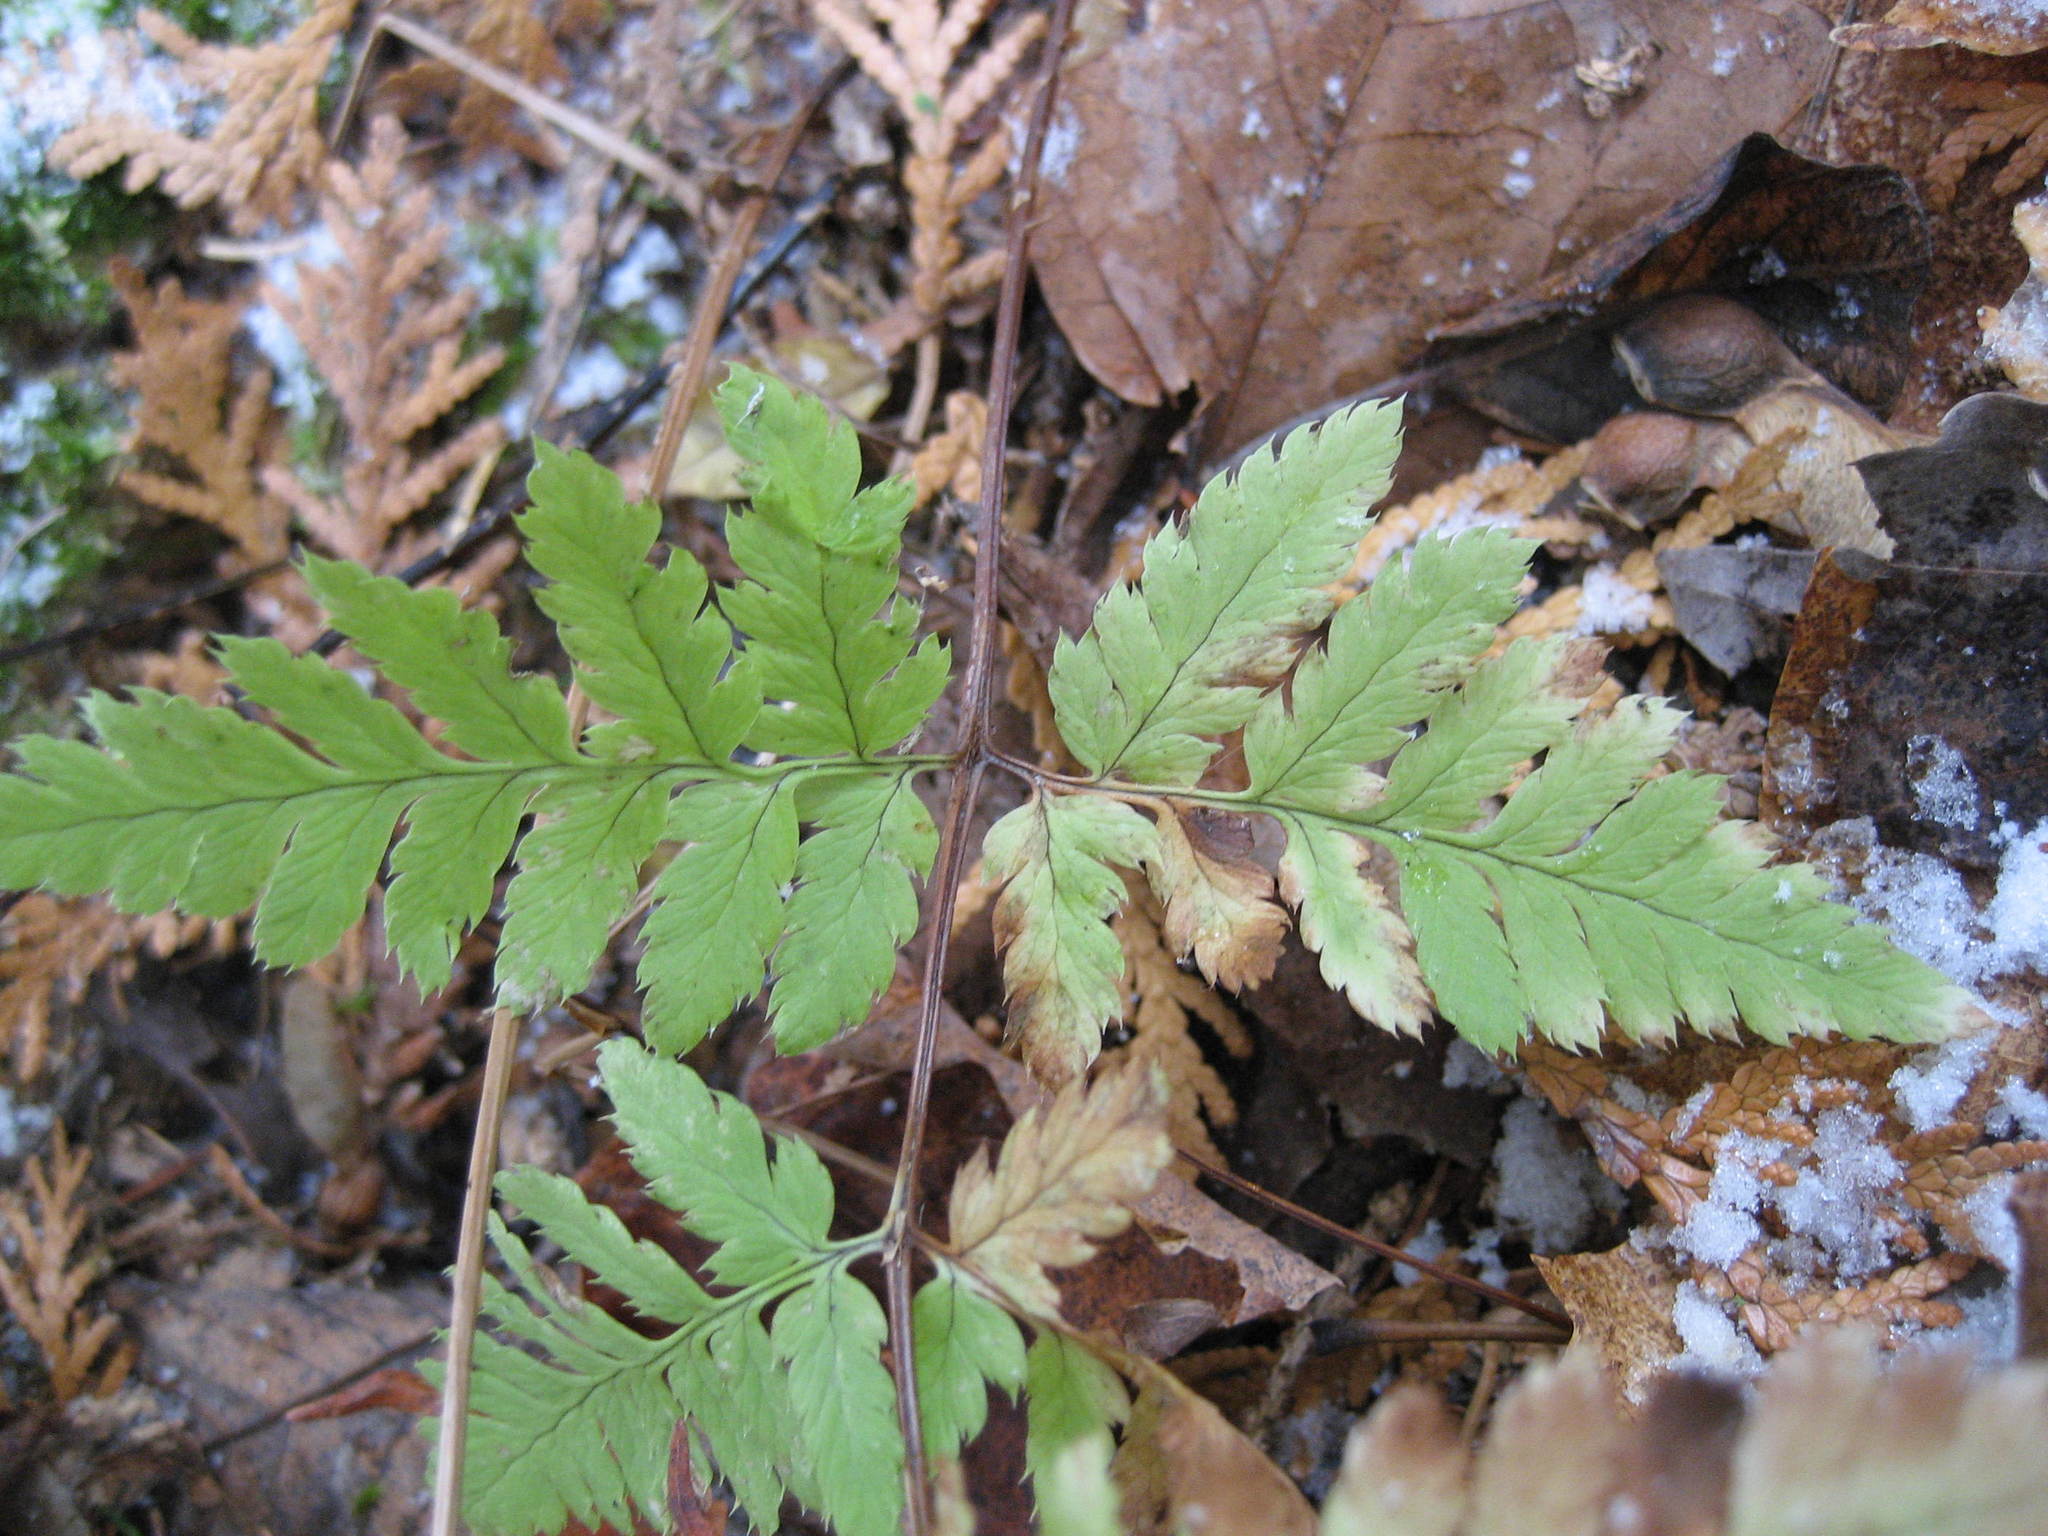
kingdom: Plantae
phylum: Tracheophyta
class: Polypodiopsida
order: Polypodiales
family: Dryopteridaceae
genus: Dryopteris
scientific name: Dryopteris carthusiana
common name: Narrow buckler-fern
